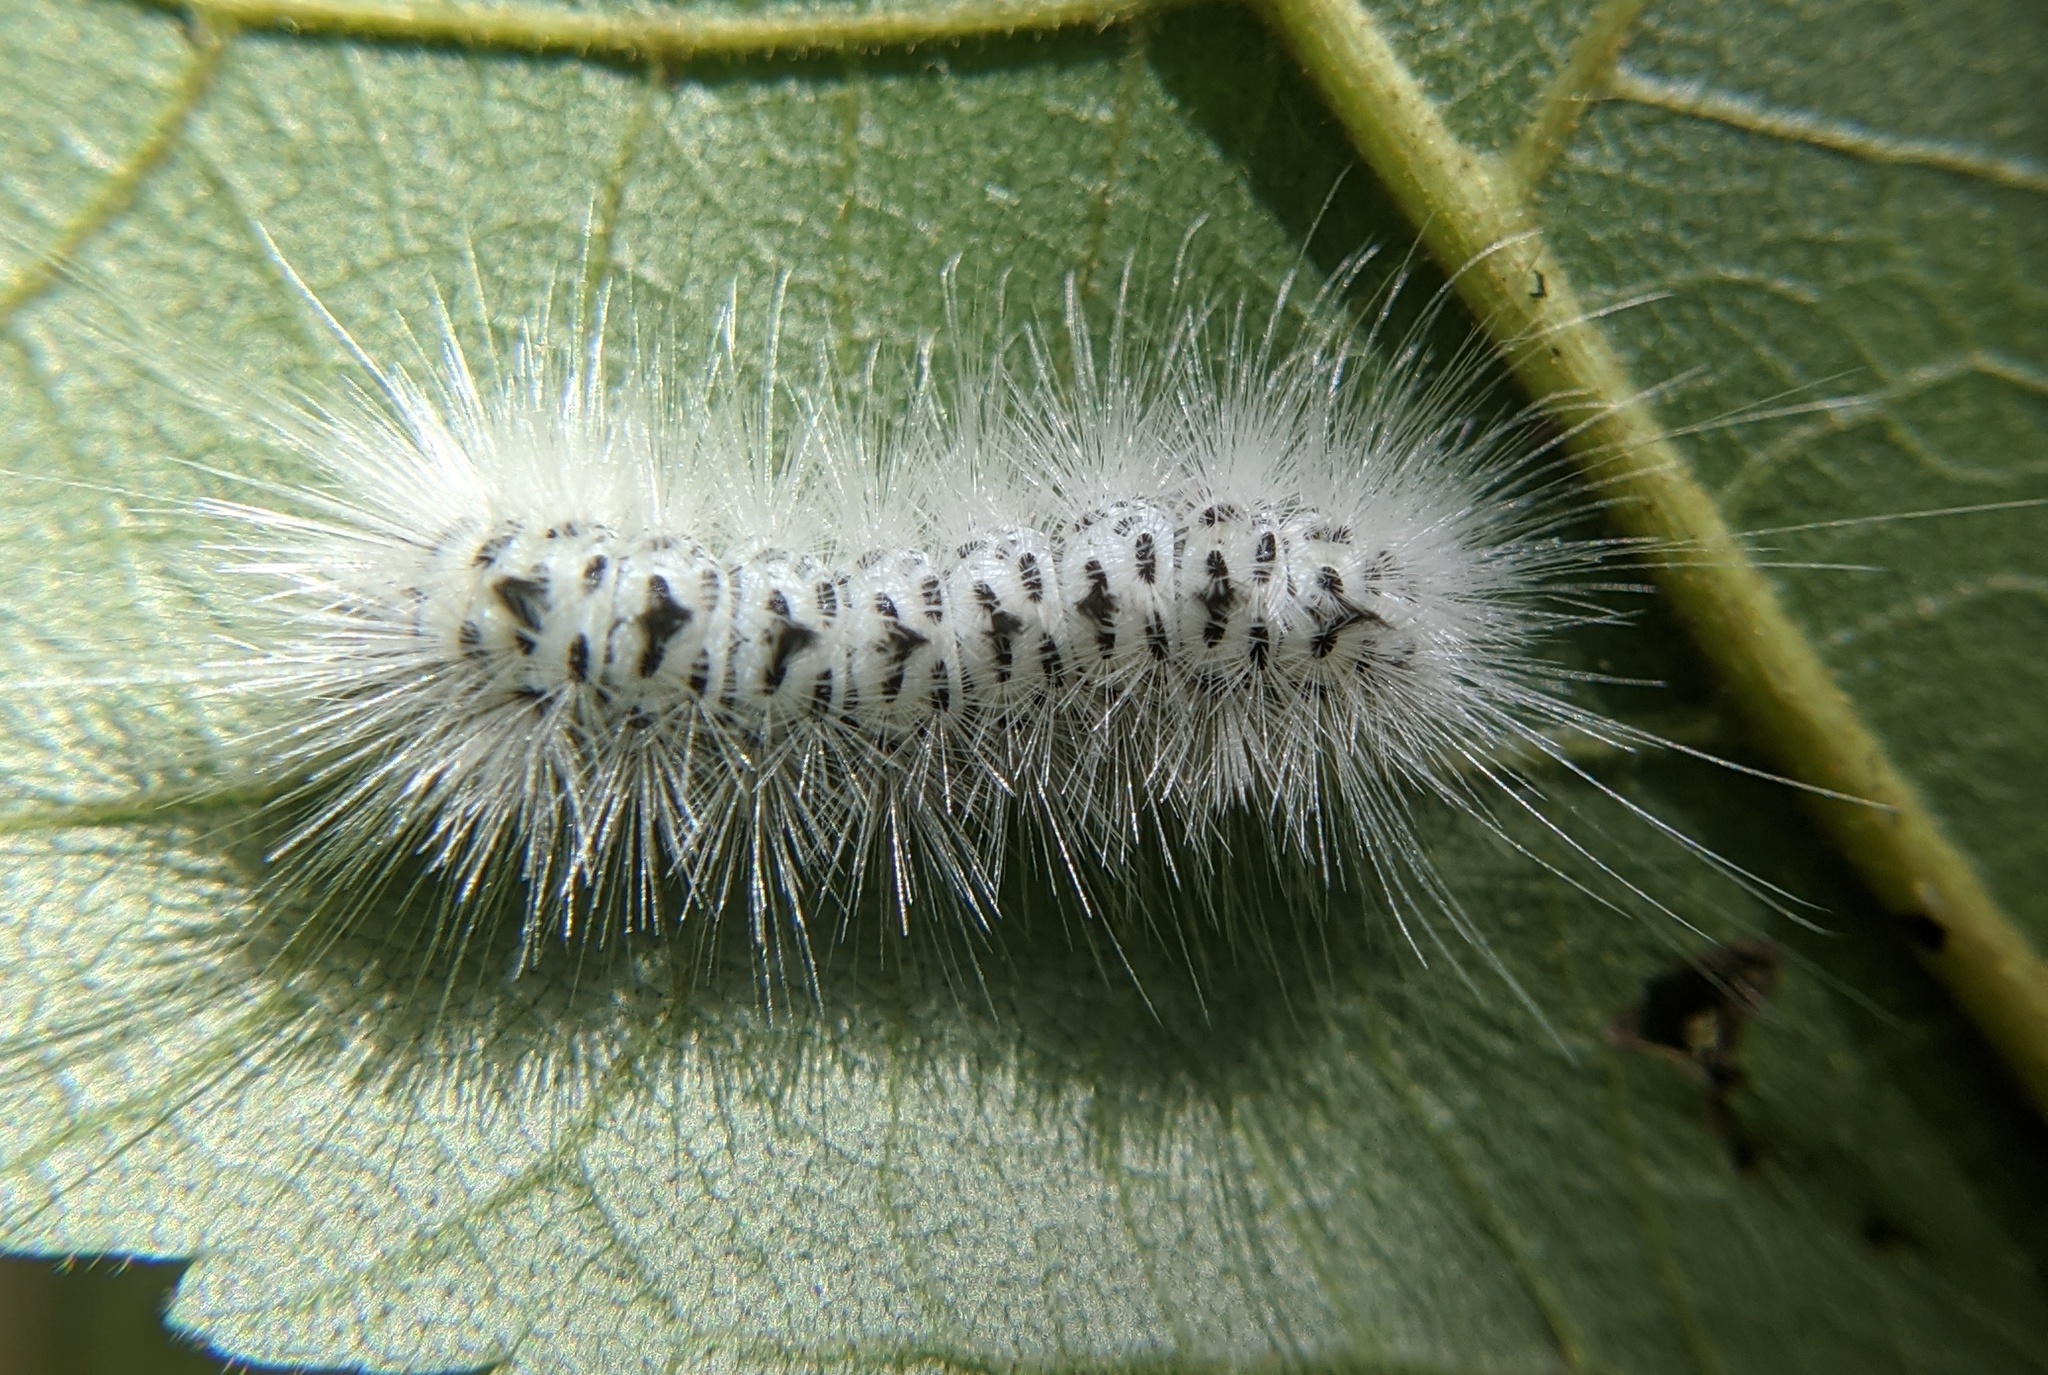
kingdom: Animalia
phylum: Arthropoda
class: Insecta
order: Lepidoptera
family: Erebidae
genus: Lophocampa
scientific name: Lophocampa caryae
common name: Hickory tussock moth
